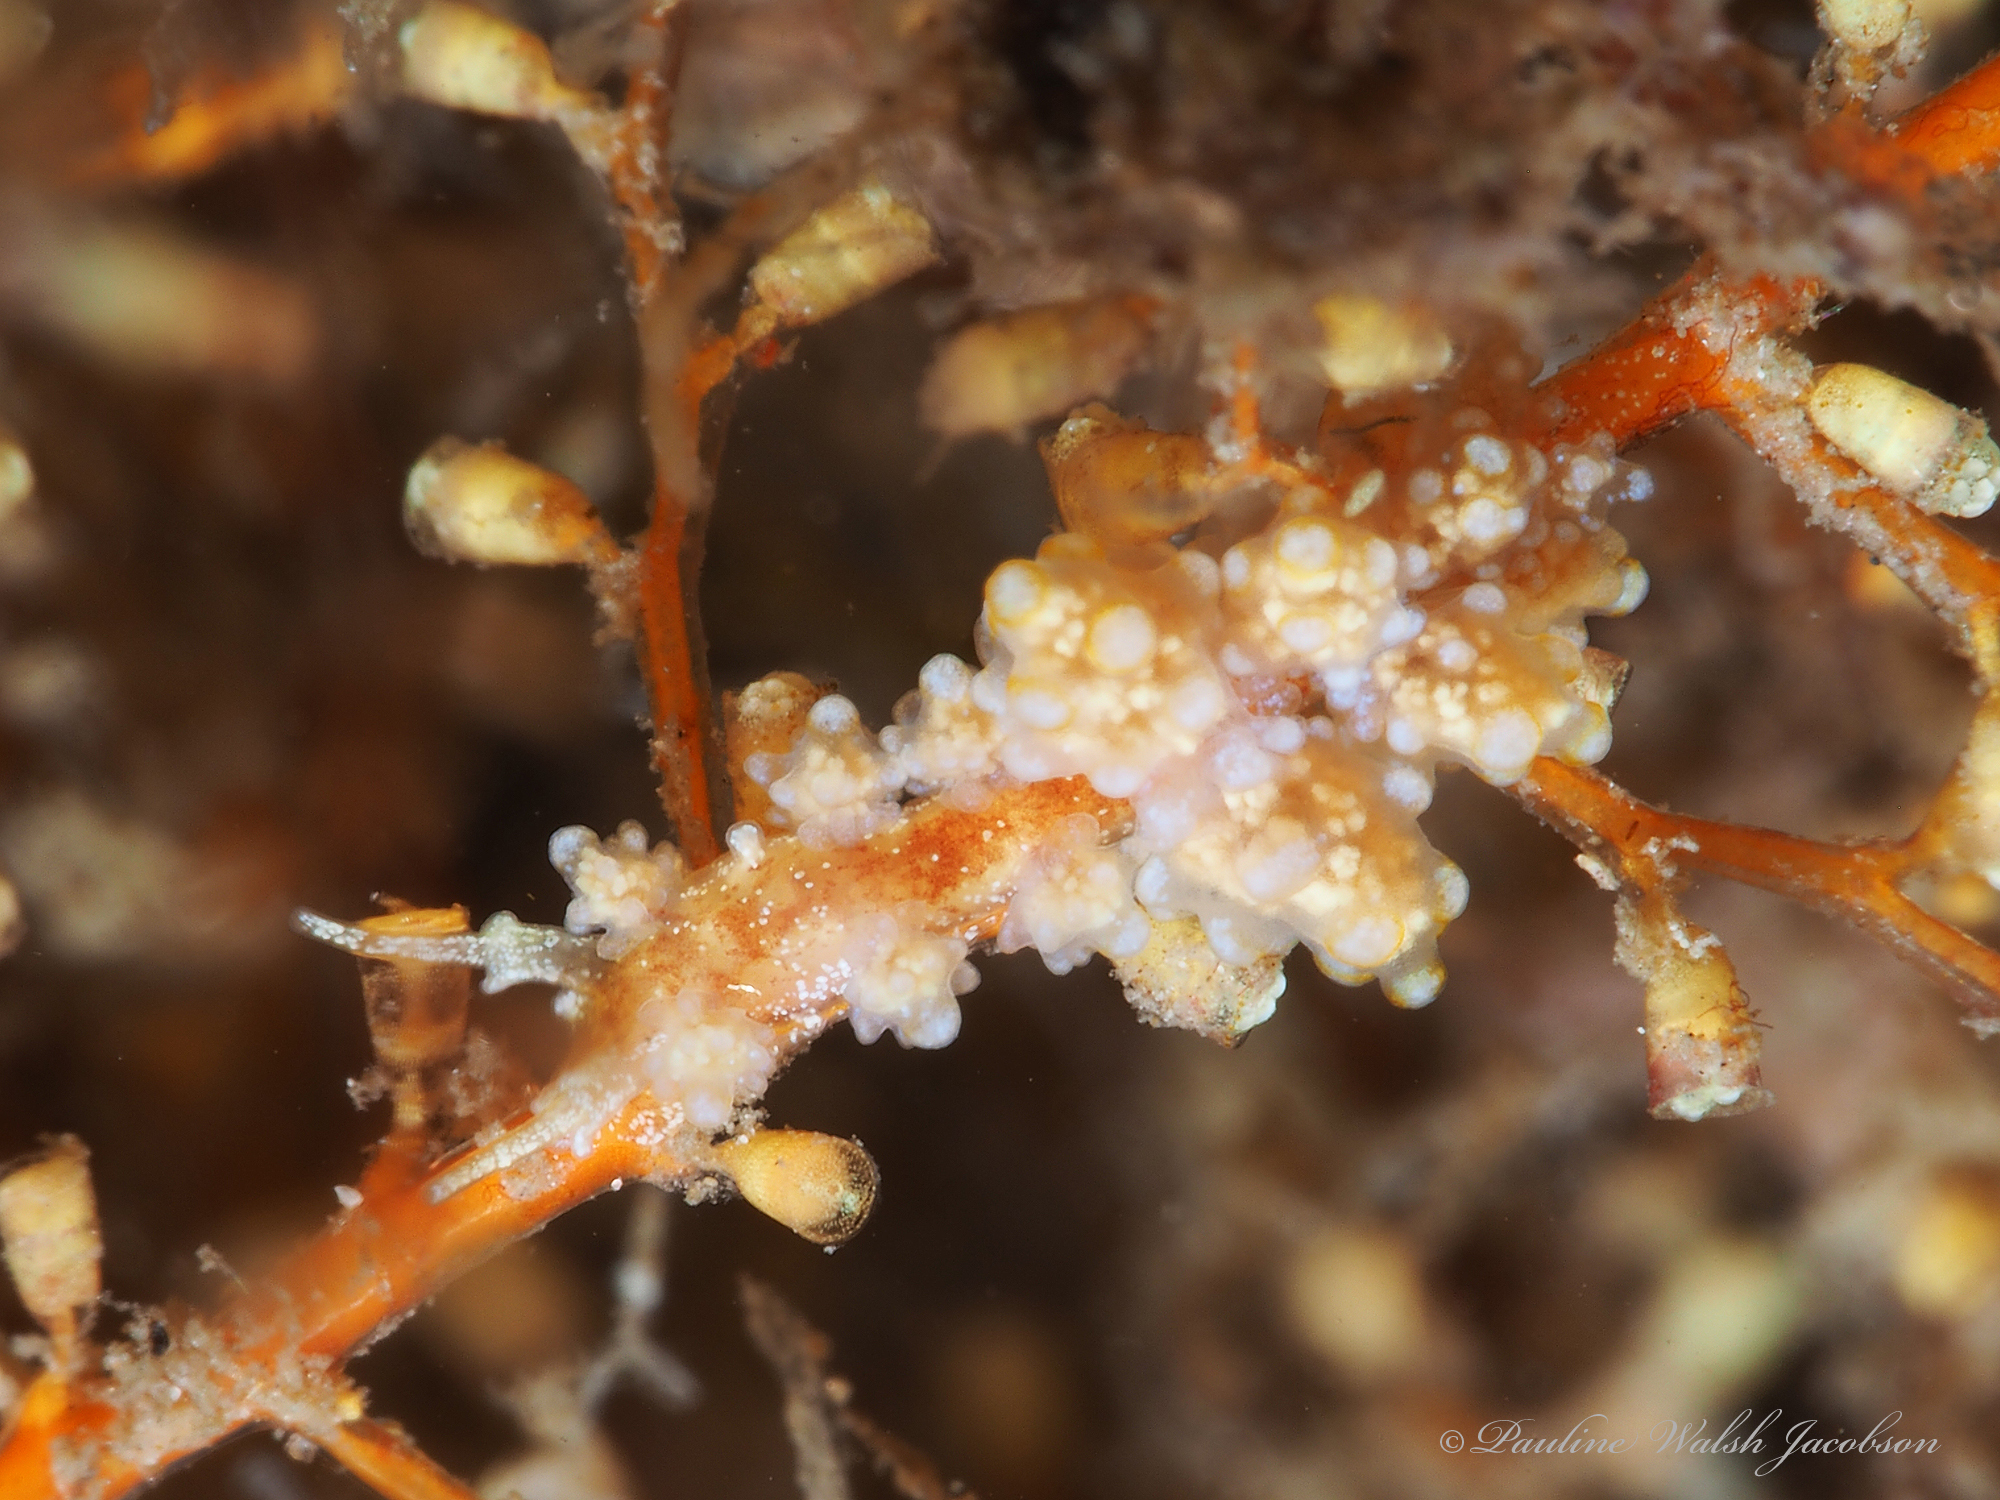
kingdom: Animalia
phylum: Mollusca
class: Gastropoda
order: Nudibranchia
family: Dotidae
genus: Doto
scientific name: Doto torrelavega
